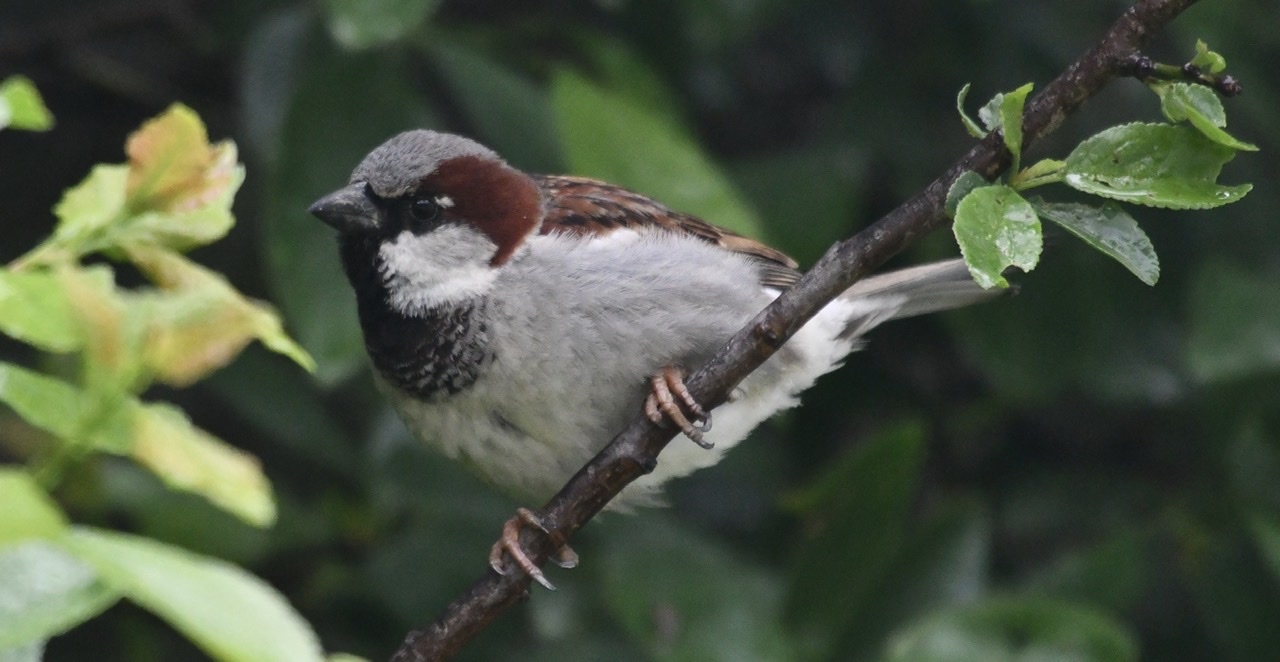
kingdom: Animalia
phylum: Chordata
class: Aves
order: Passeriformes
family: Passeridae
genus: Passer
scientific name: Passer domesticus
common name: House sparrow
